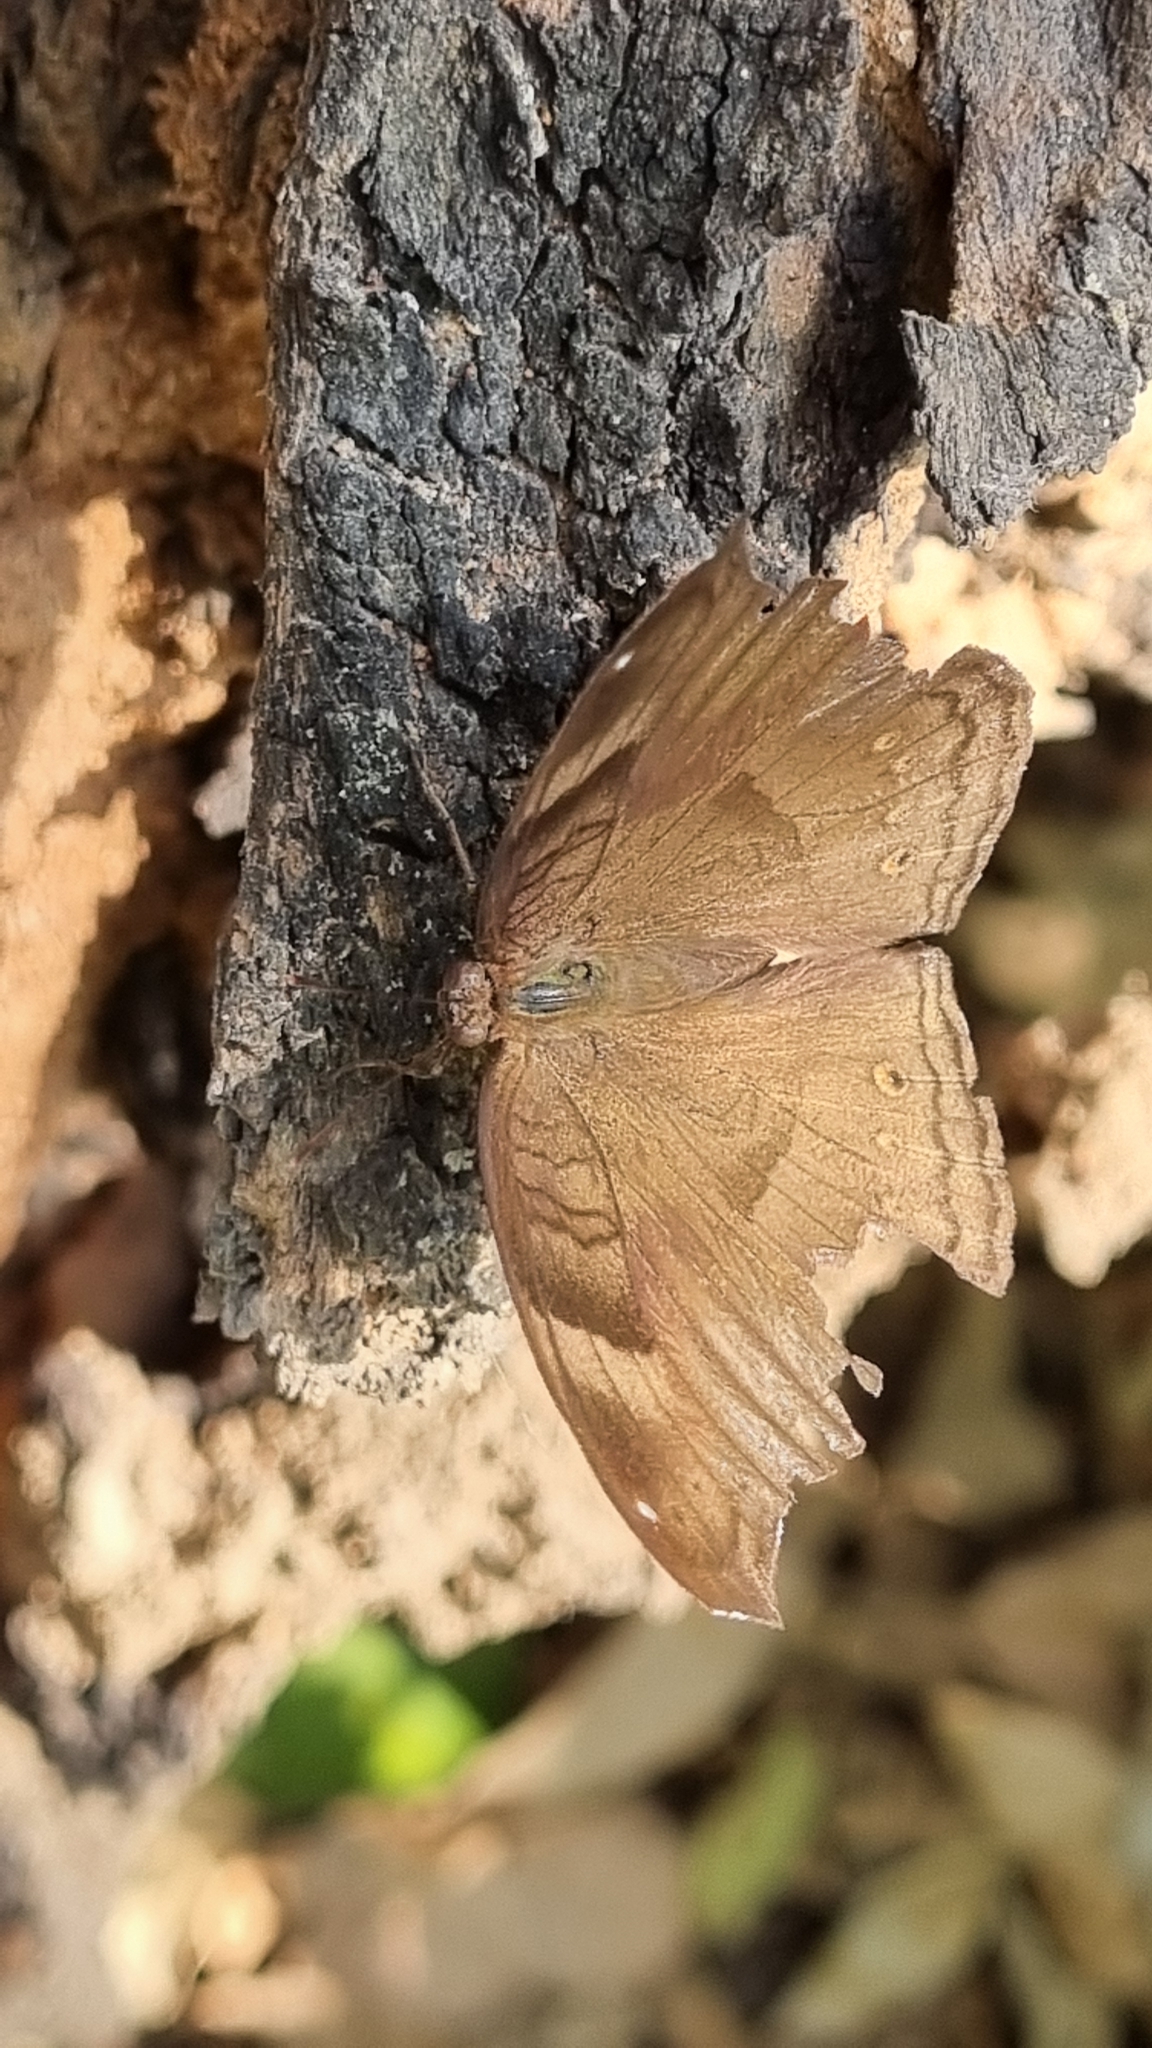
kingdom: Animalia
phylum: Arthropoda
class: Insecta
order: Lepidoptera
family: Nymphalidae
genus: Junonia
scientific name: Junonia iphita
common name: Chocolate pansy
